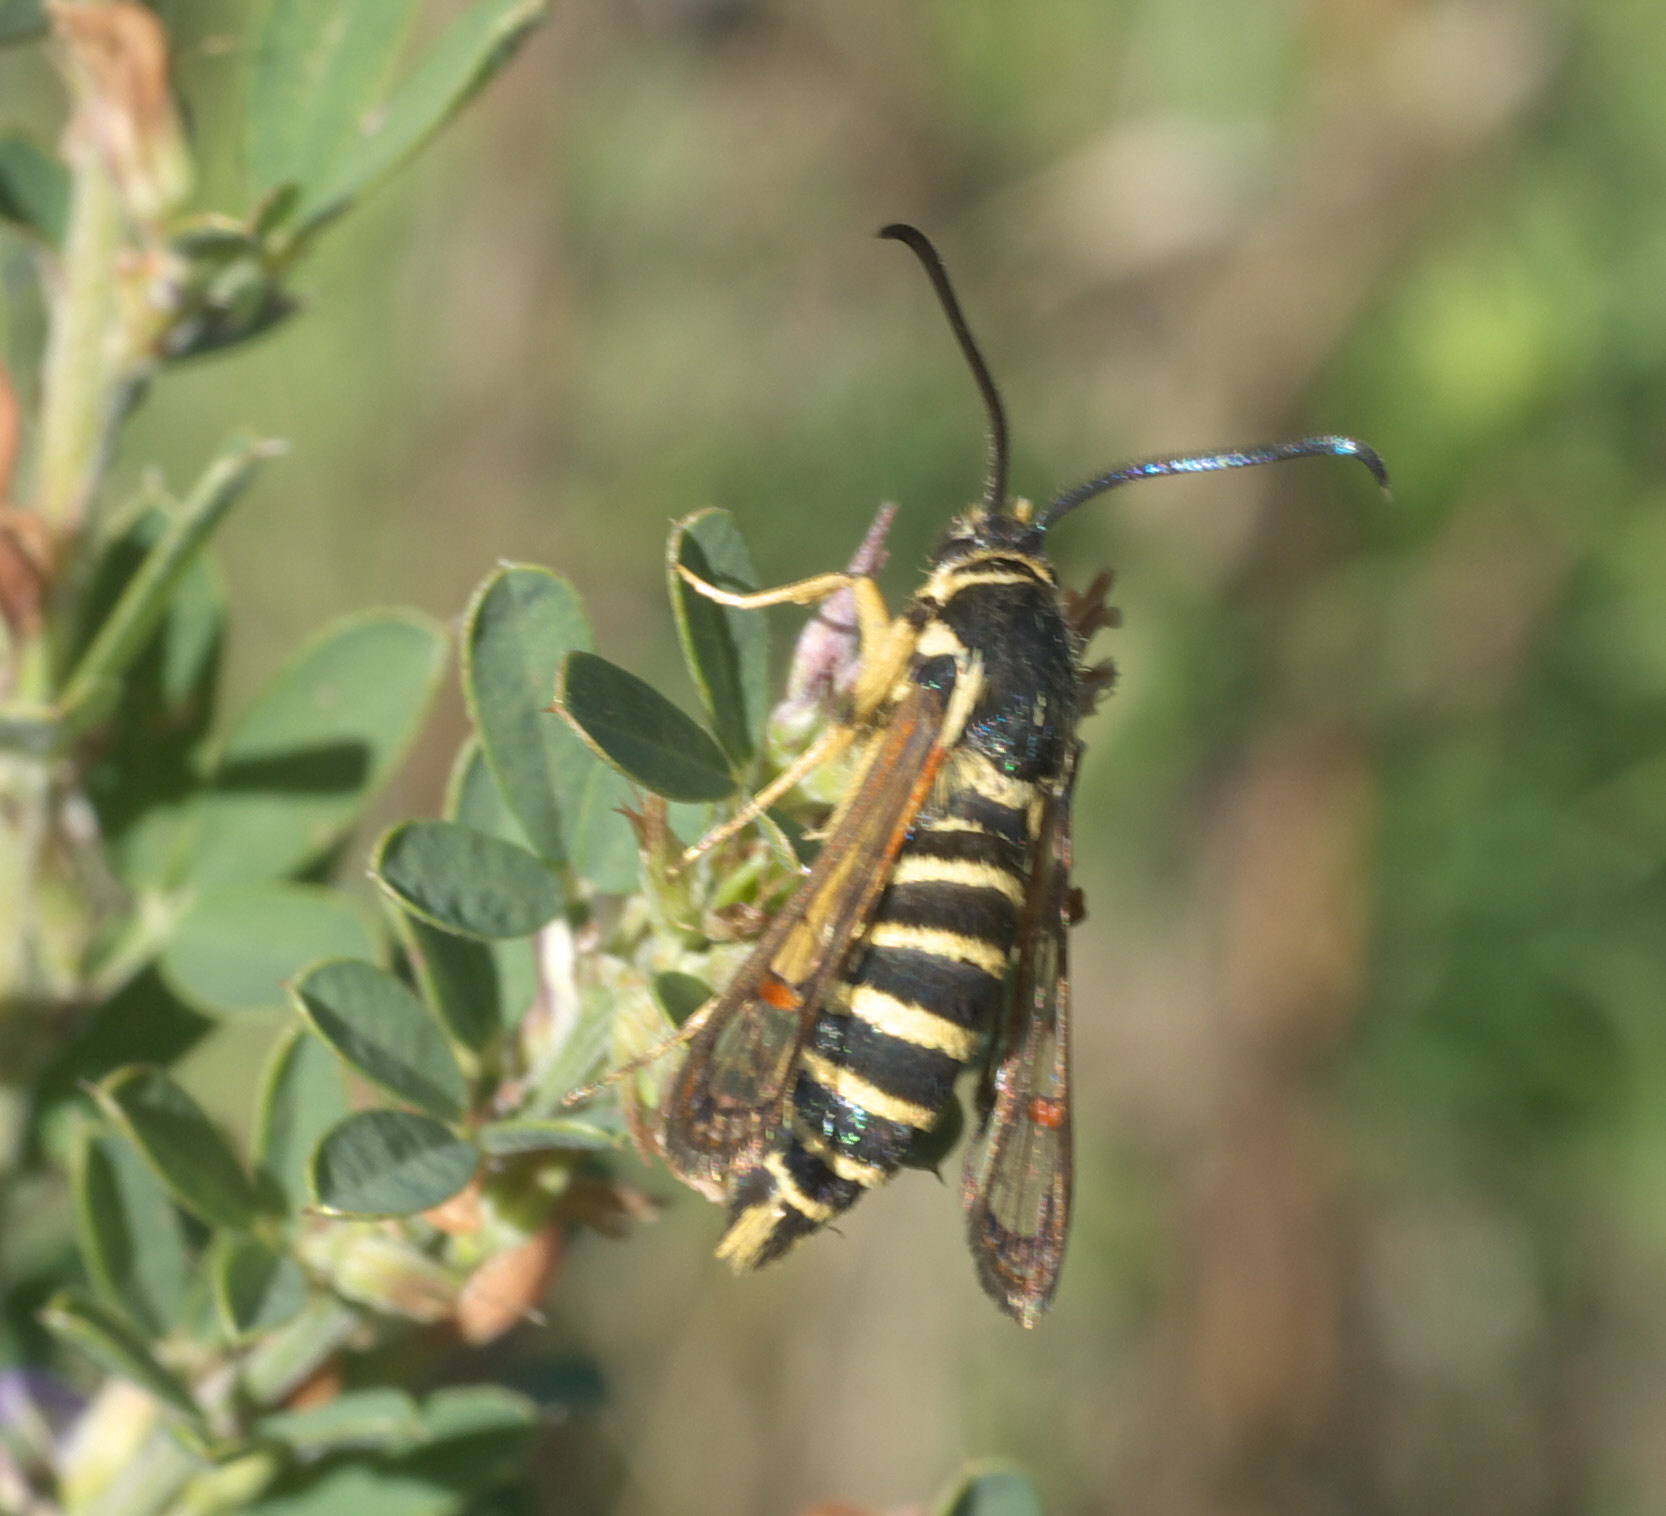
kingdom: Animalia
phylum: Arthropoda
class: Insecta
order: Lepidoptera
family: Sesiidae
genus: Synanthedon
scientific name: Synanthedon rileyana
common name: Riley's clearwing moth
